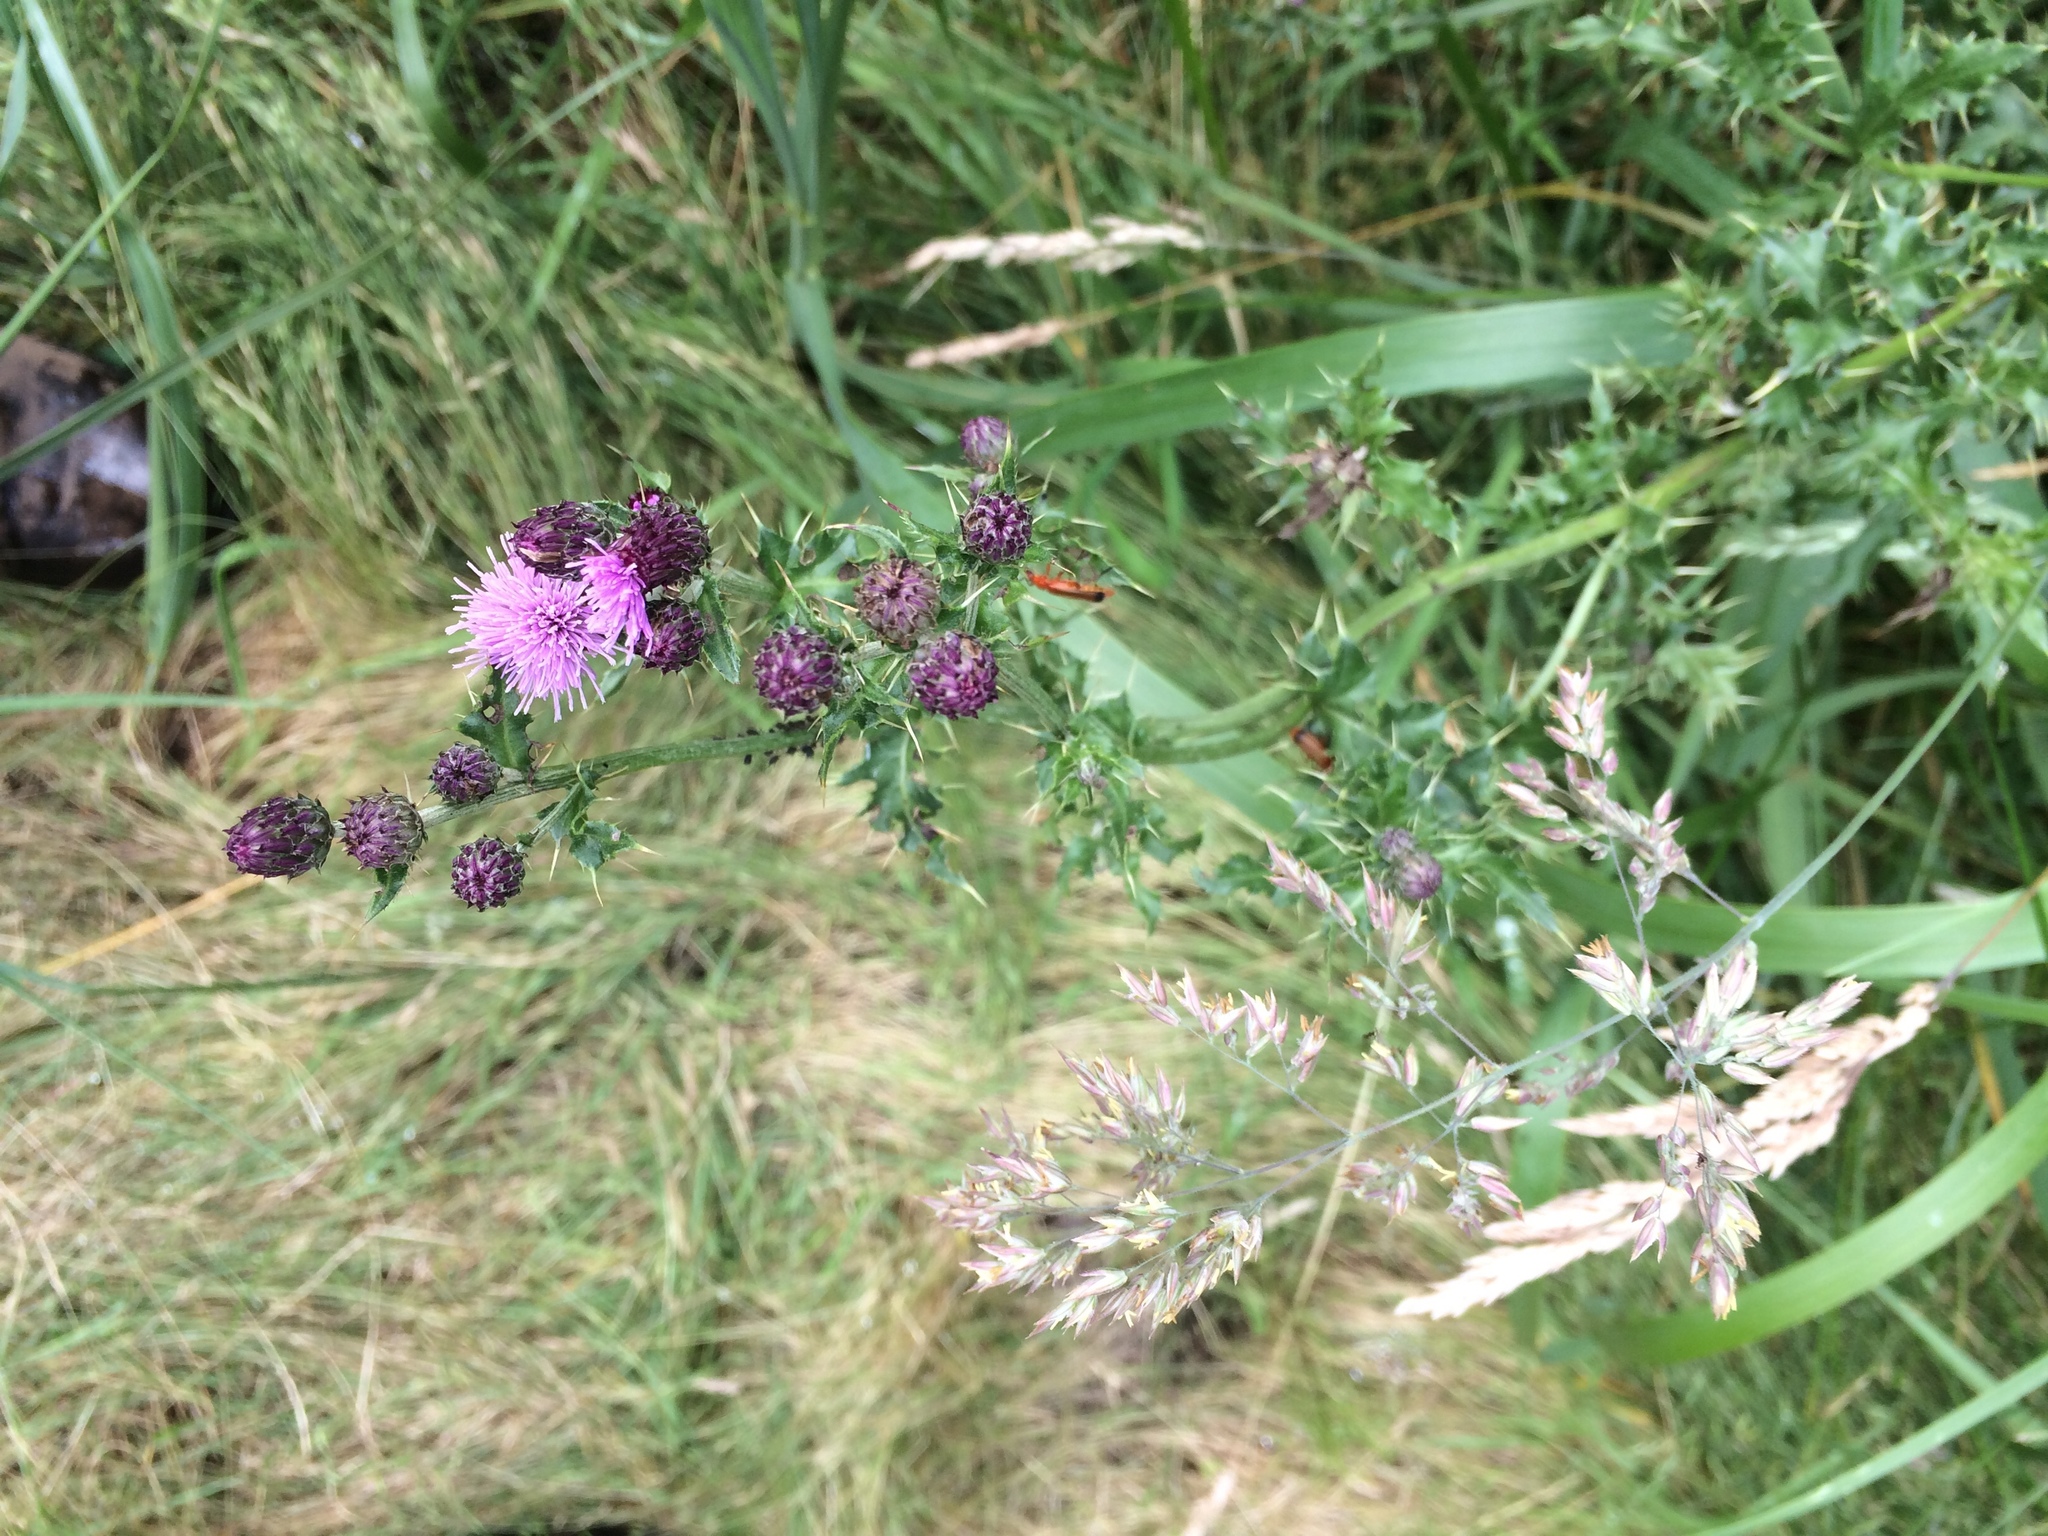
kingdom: Plantae
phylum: Tracheophyta
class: Magnoliopsida
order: Asterales
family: Asteraceae
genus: Cirsium
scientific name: Cirsium arvense
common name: Creeping thistle
